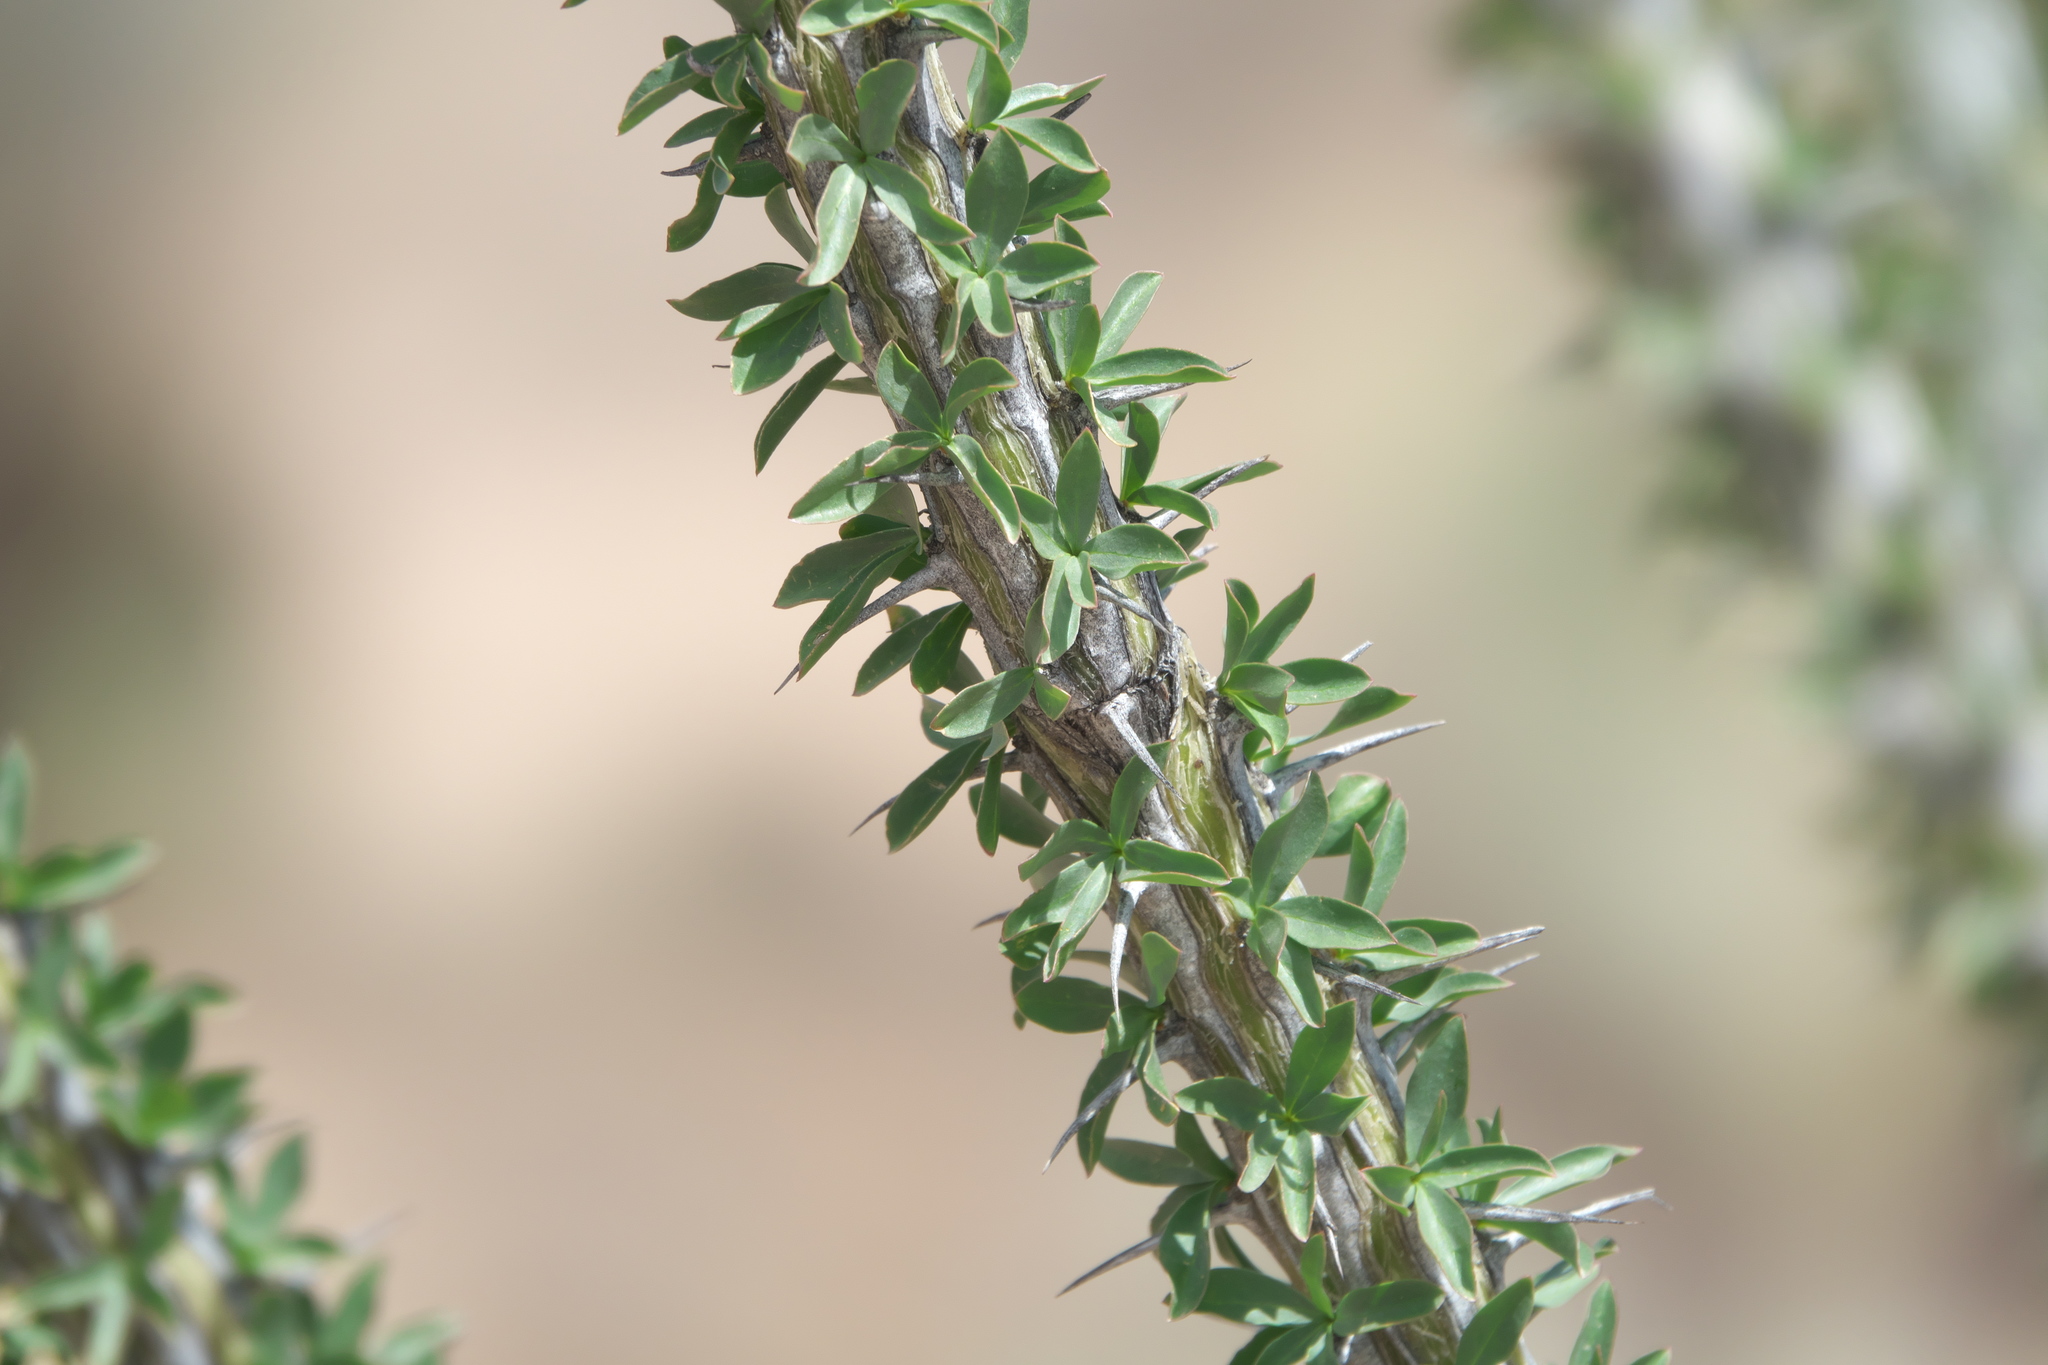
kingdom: Plantae
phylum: Tracheophyta
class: Magnoliopsida
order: Ericales
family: Fouquieriaceae
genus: Fouquieria
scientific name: Fouquieria splendens
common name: Vine-cactus
